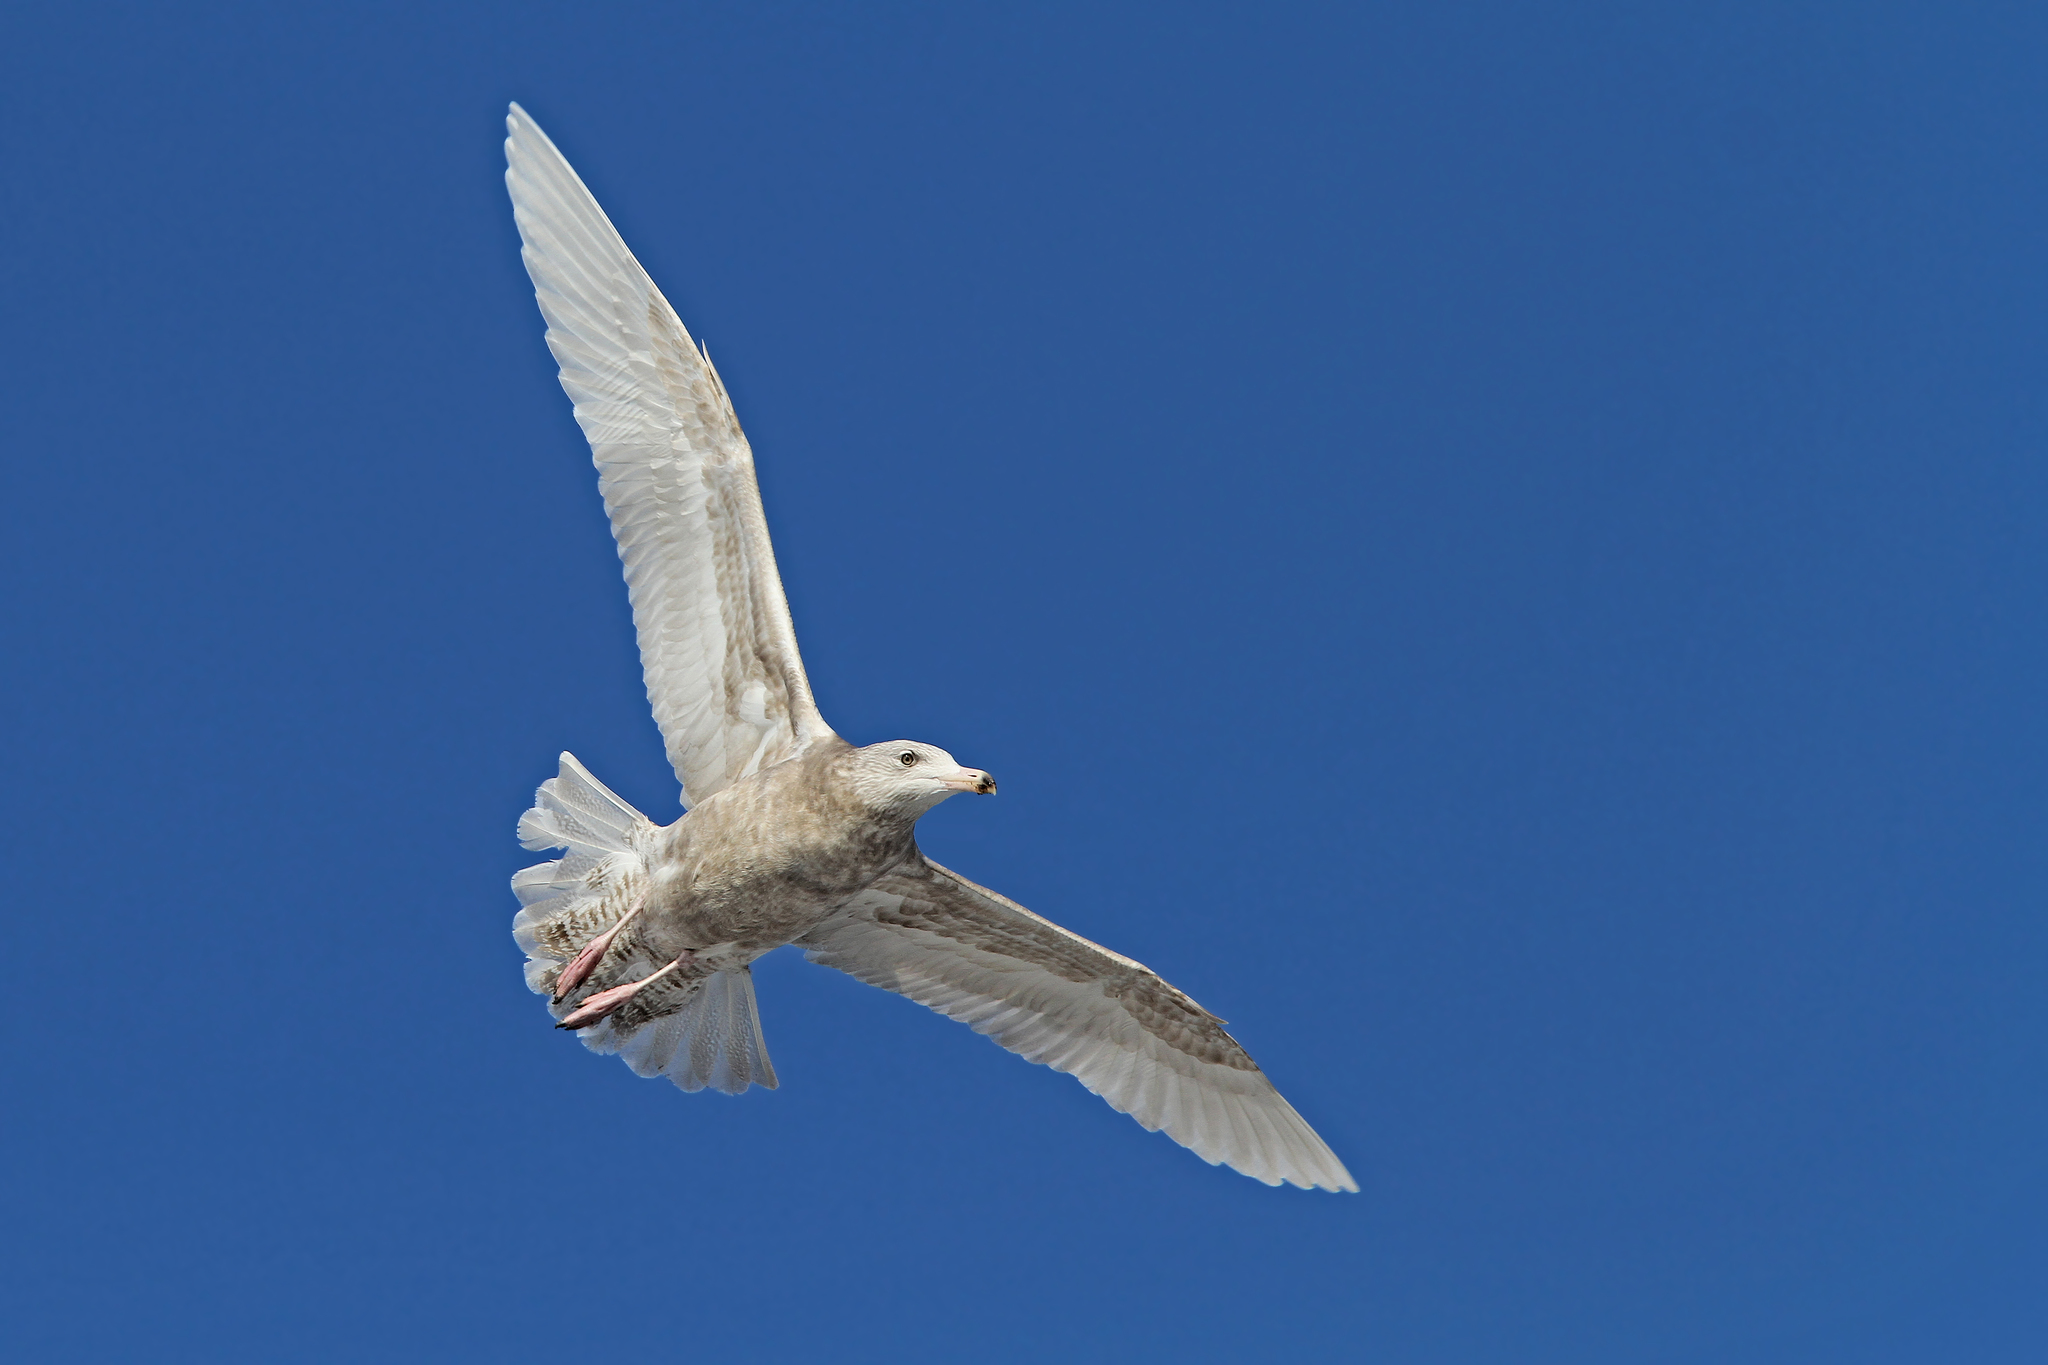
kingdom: Animalia
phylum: Chordata
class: Aves
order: Charadriiformes
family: Laridae
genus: Larus
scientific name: Larus hyperboreus
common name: Glaucous gull
